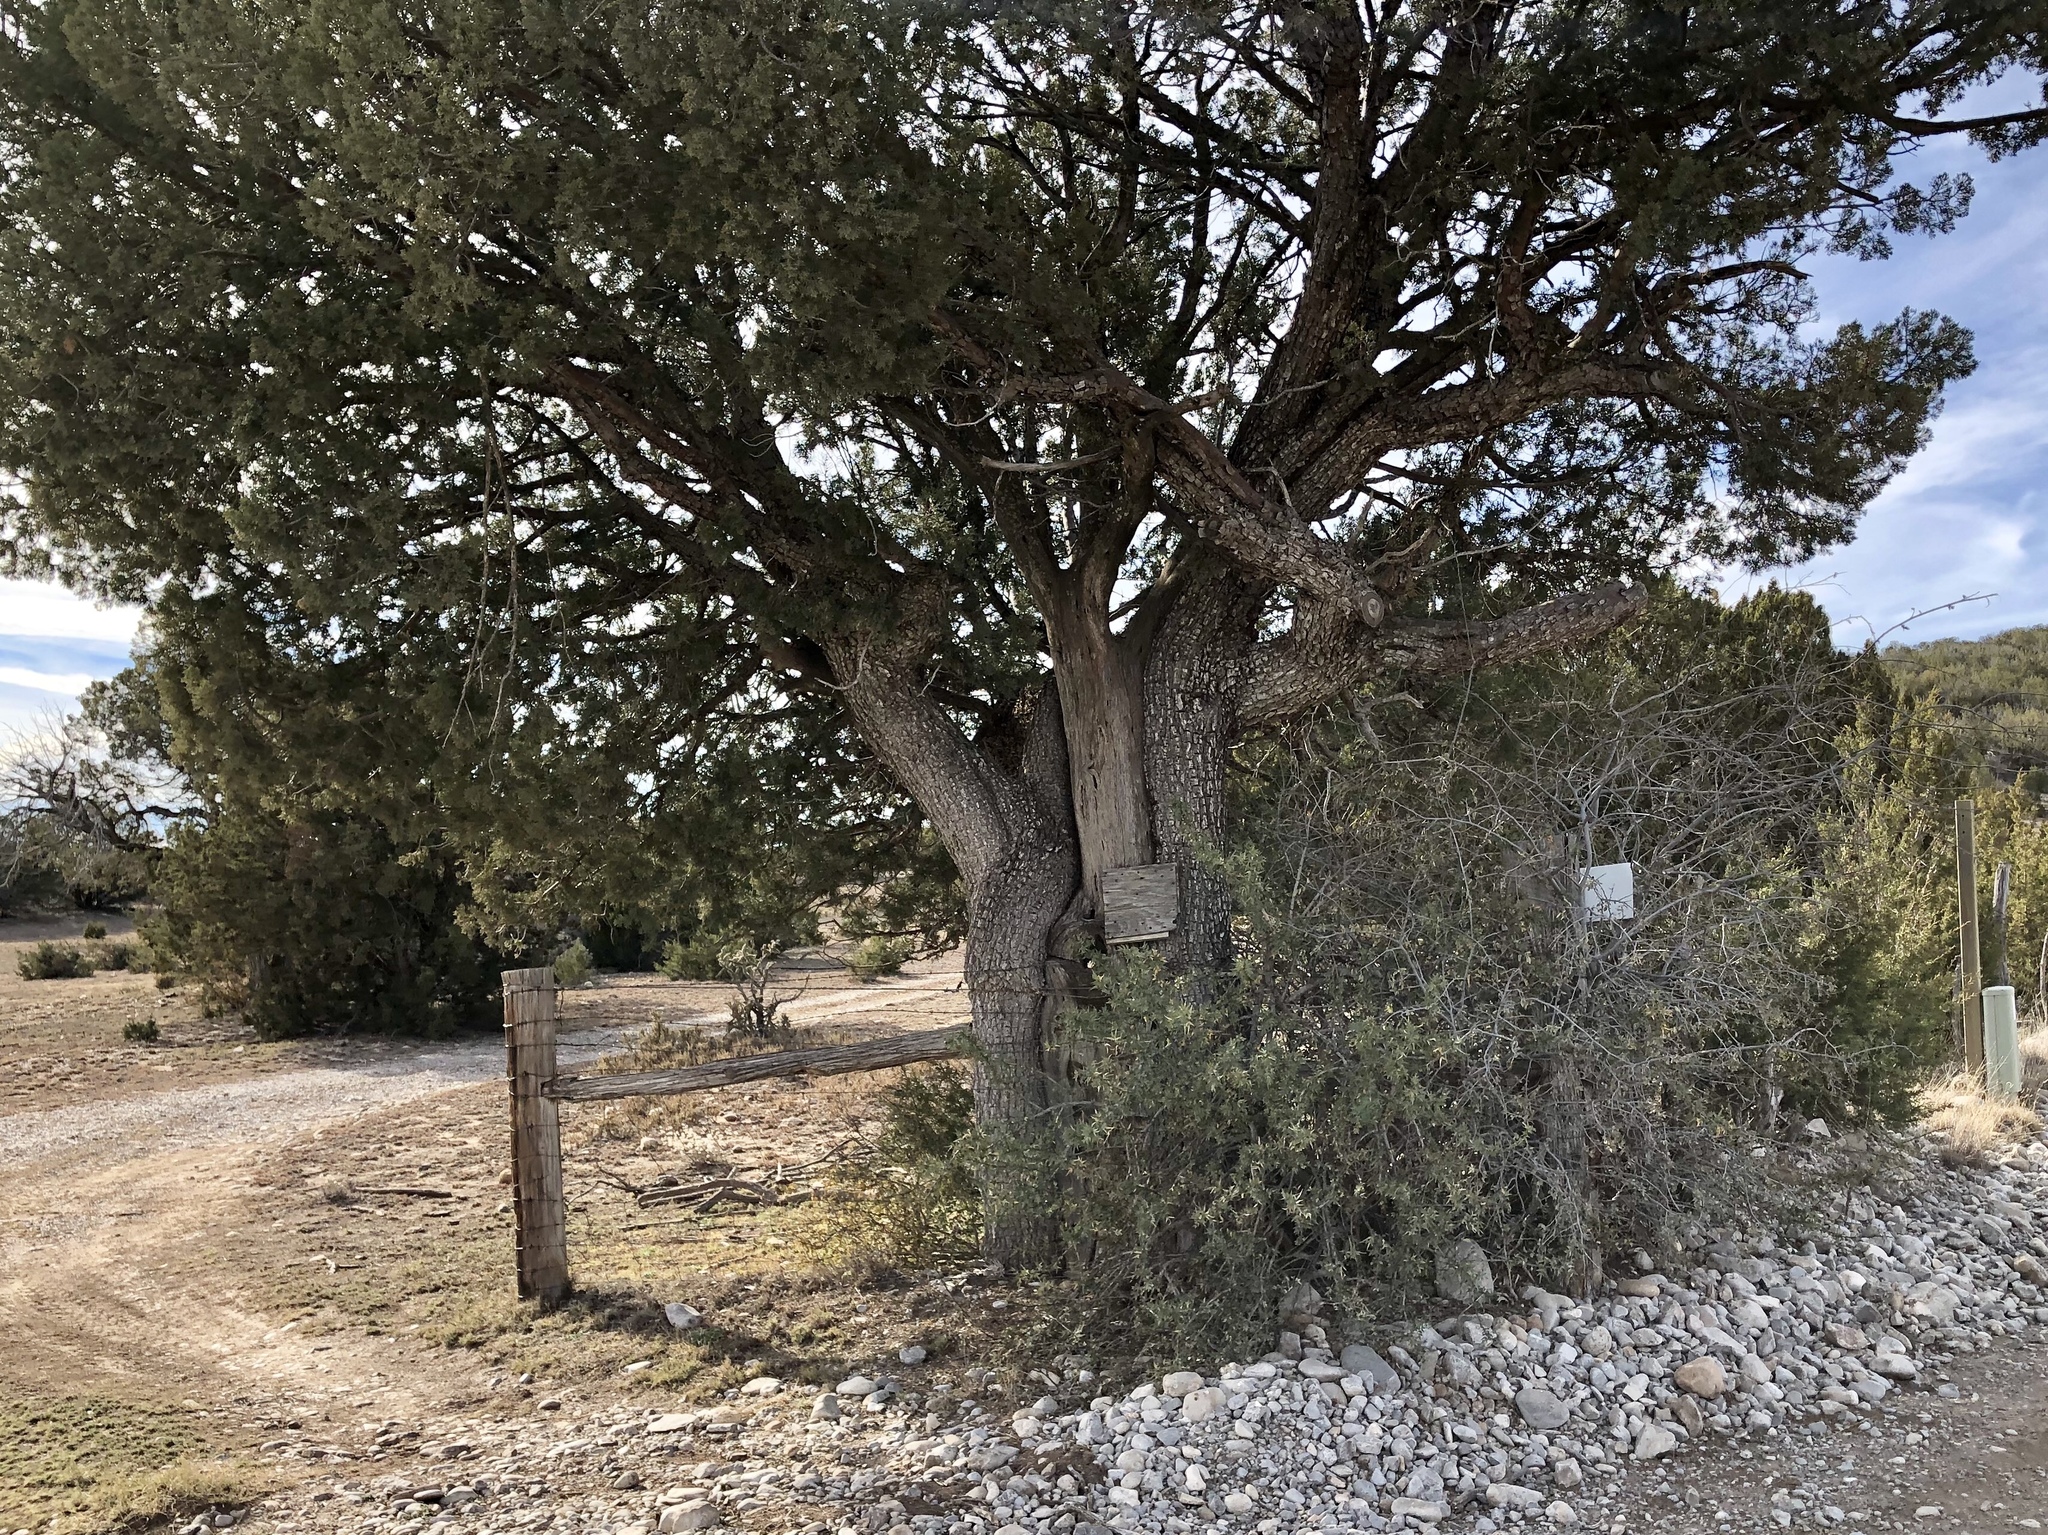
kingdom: Plantae
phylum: Tracheophyta
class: Pinopsida
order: Pinales
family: Cupressaceae
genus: Juniperus
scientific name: Juniperus deppeana
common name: Alligator juniper
